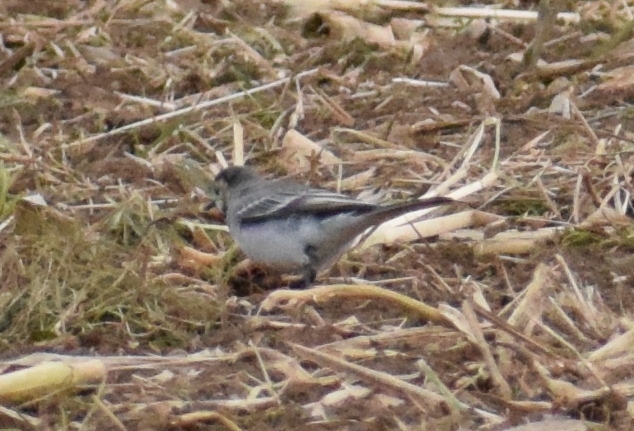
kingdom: Animalia
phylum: Chordata
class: Aves
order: Passeriformes
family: Motacillidae
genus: Motacilla
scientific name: Motacilla alba
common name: White wagtail
